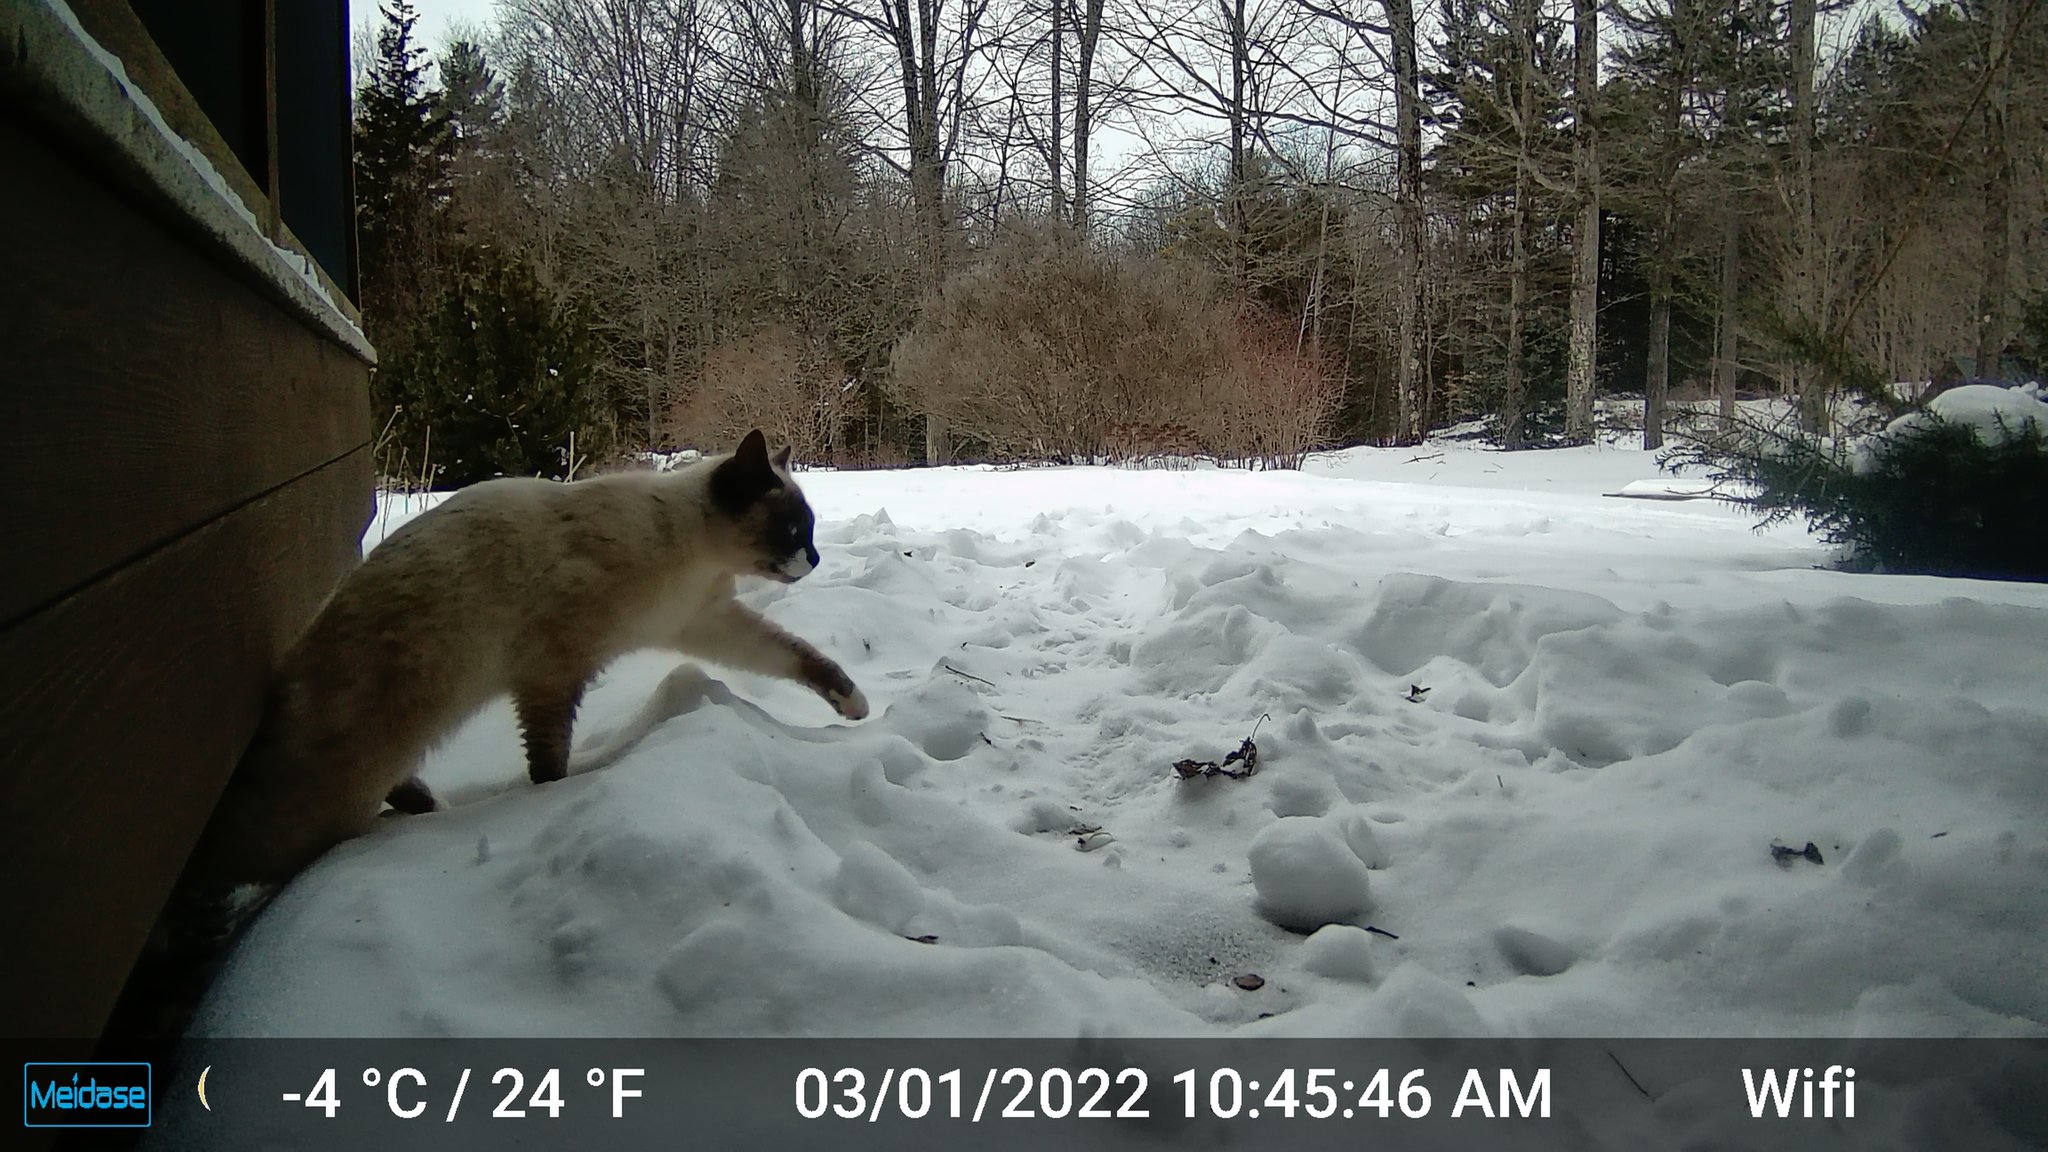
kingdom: Animalia
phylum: Chordata
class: Mammalia
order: Carnivora
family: Felidae
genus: Felis
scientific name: Felis catus
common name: Domestic cat
